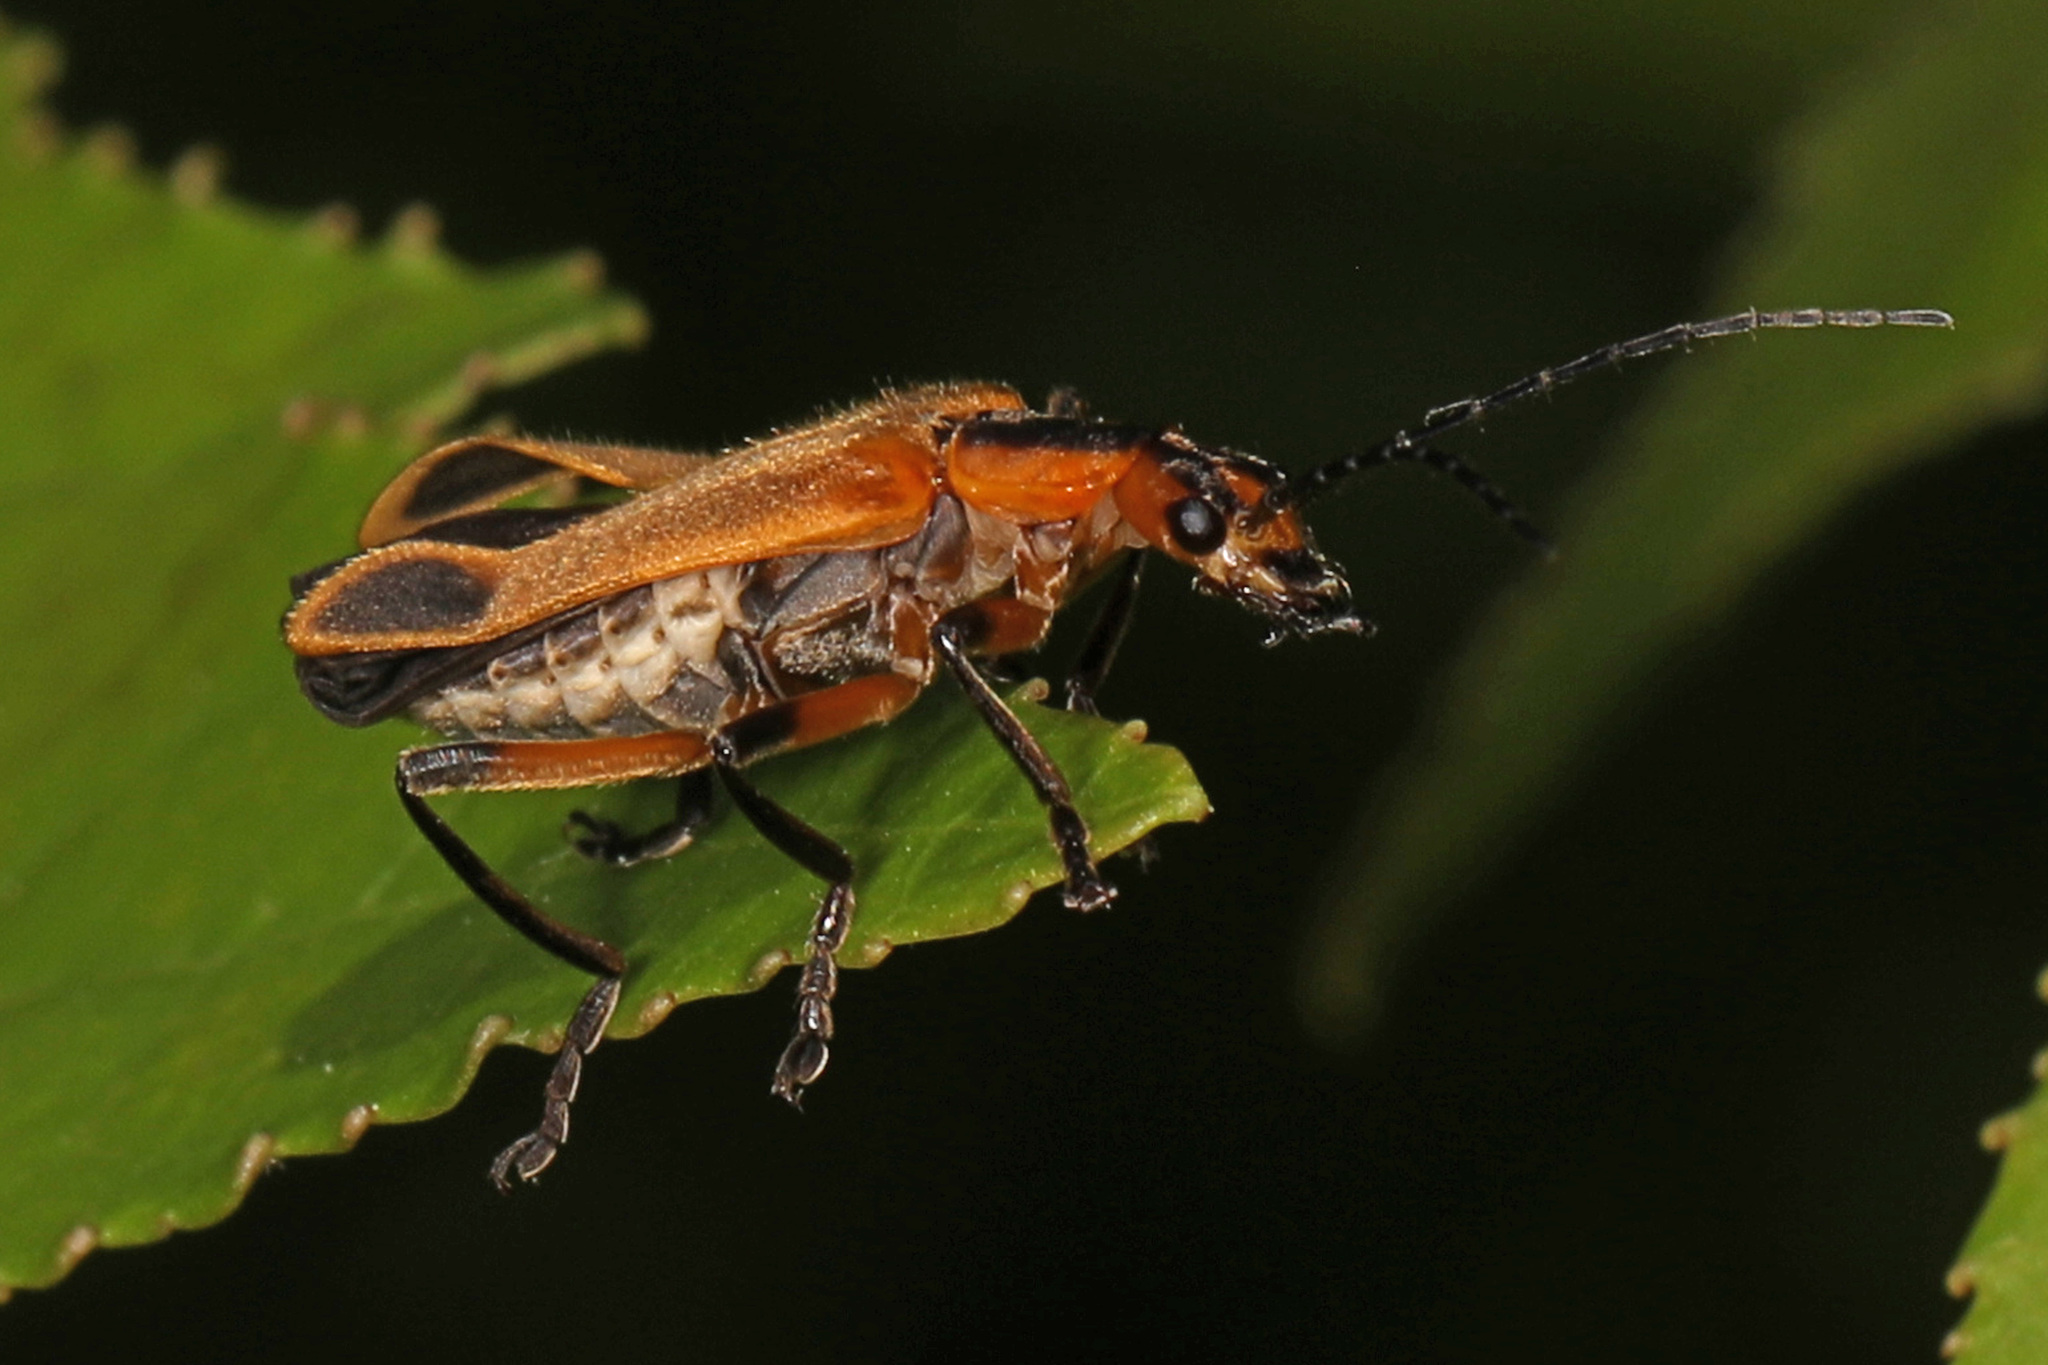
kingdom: Animalia
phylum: Arthropoda
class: Insecta
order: Coleoptera
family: Cantharidae
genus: Chauliognathus
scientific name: Chauliognathus marginatus
